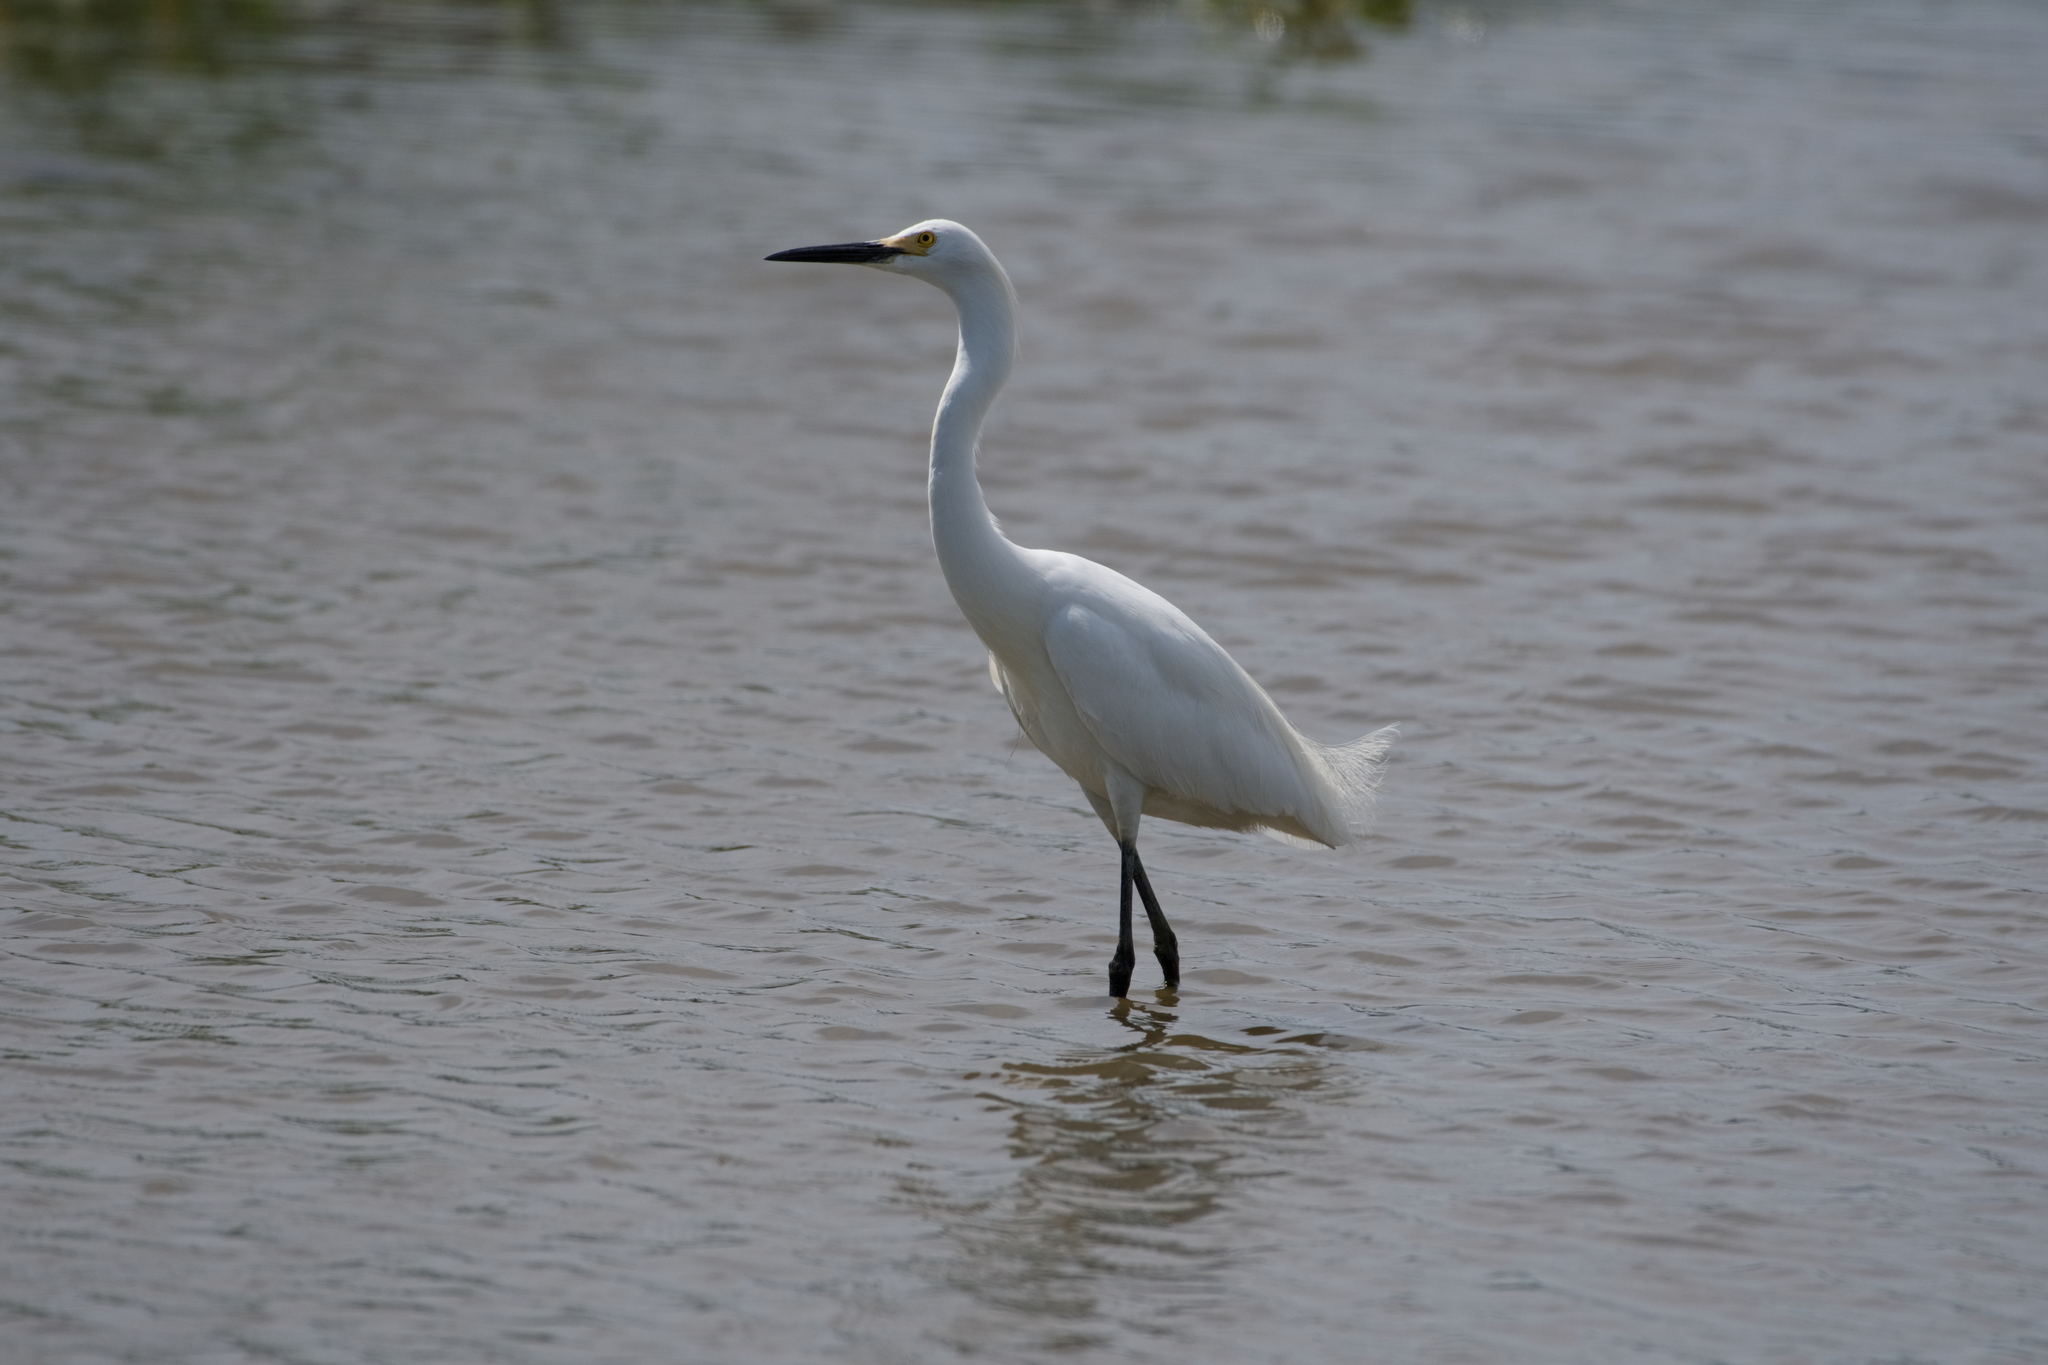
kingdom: Animalia
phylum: Chordata
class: Aves
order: Pelecaniformes
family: Ardeidae
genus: Egretta
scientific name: Egretta thula
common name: Snowy egret
